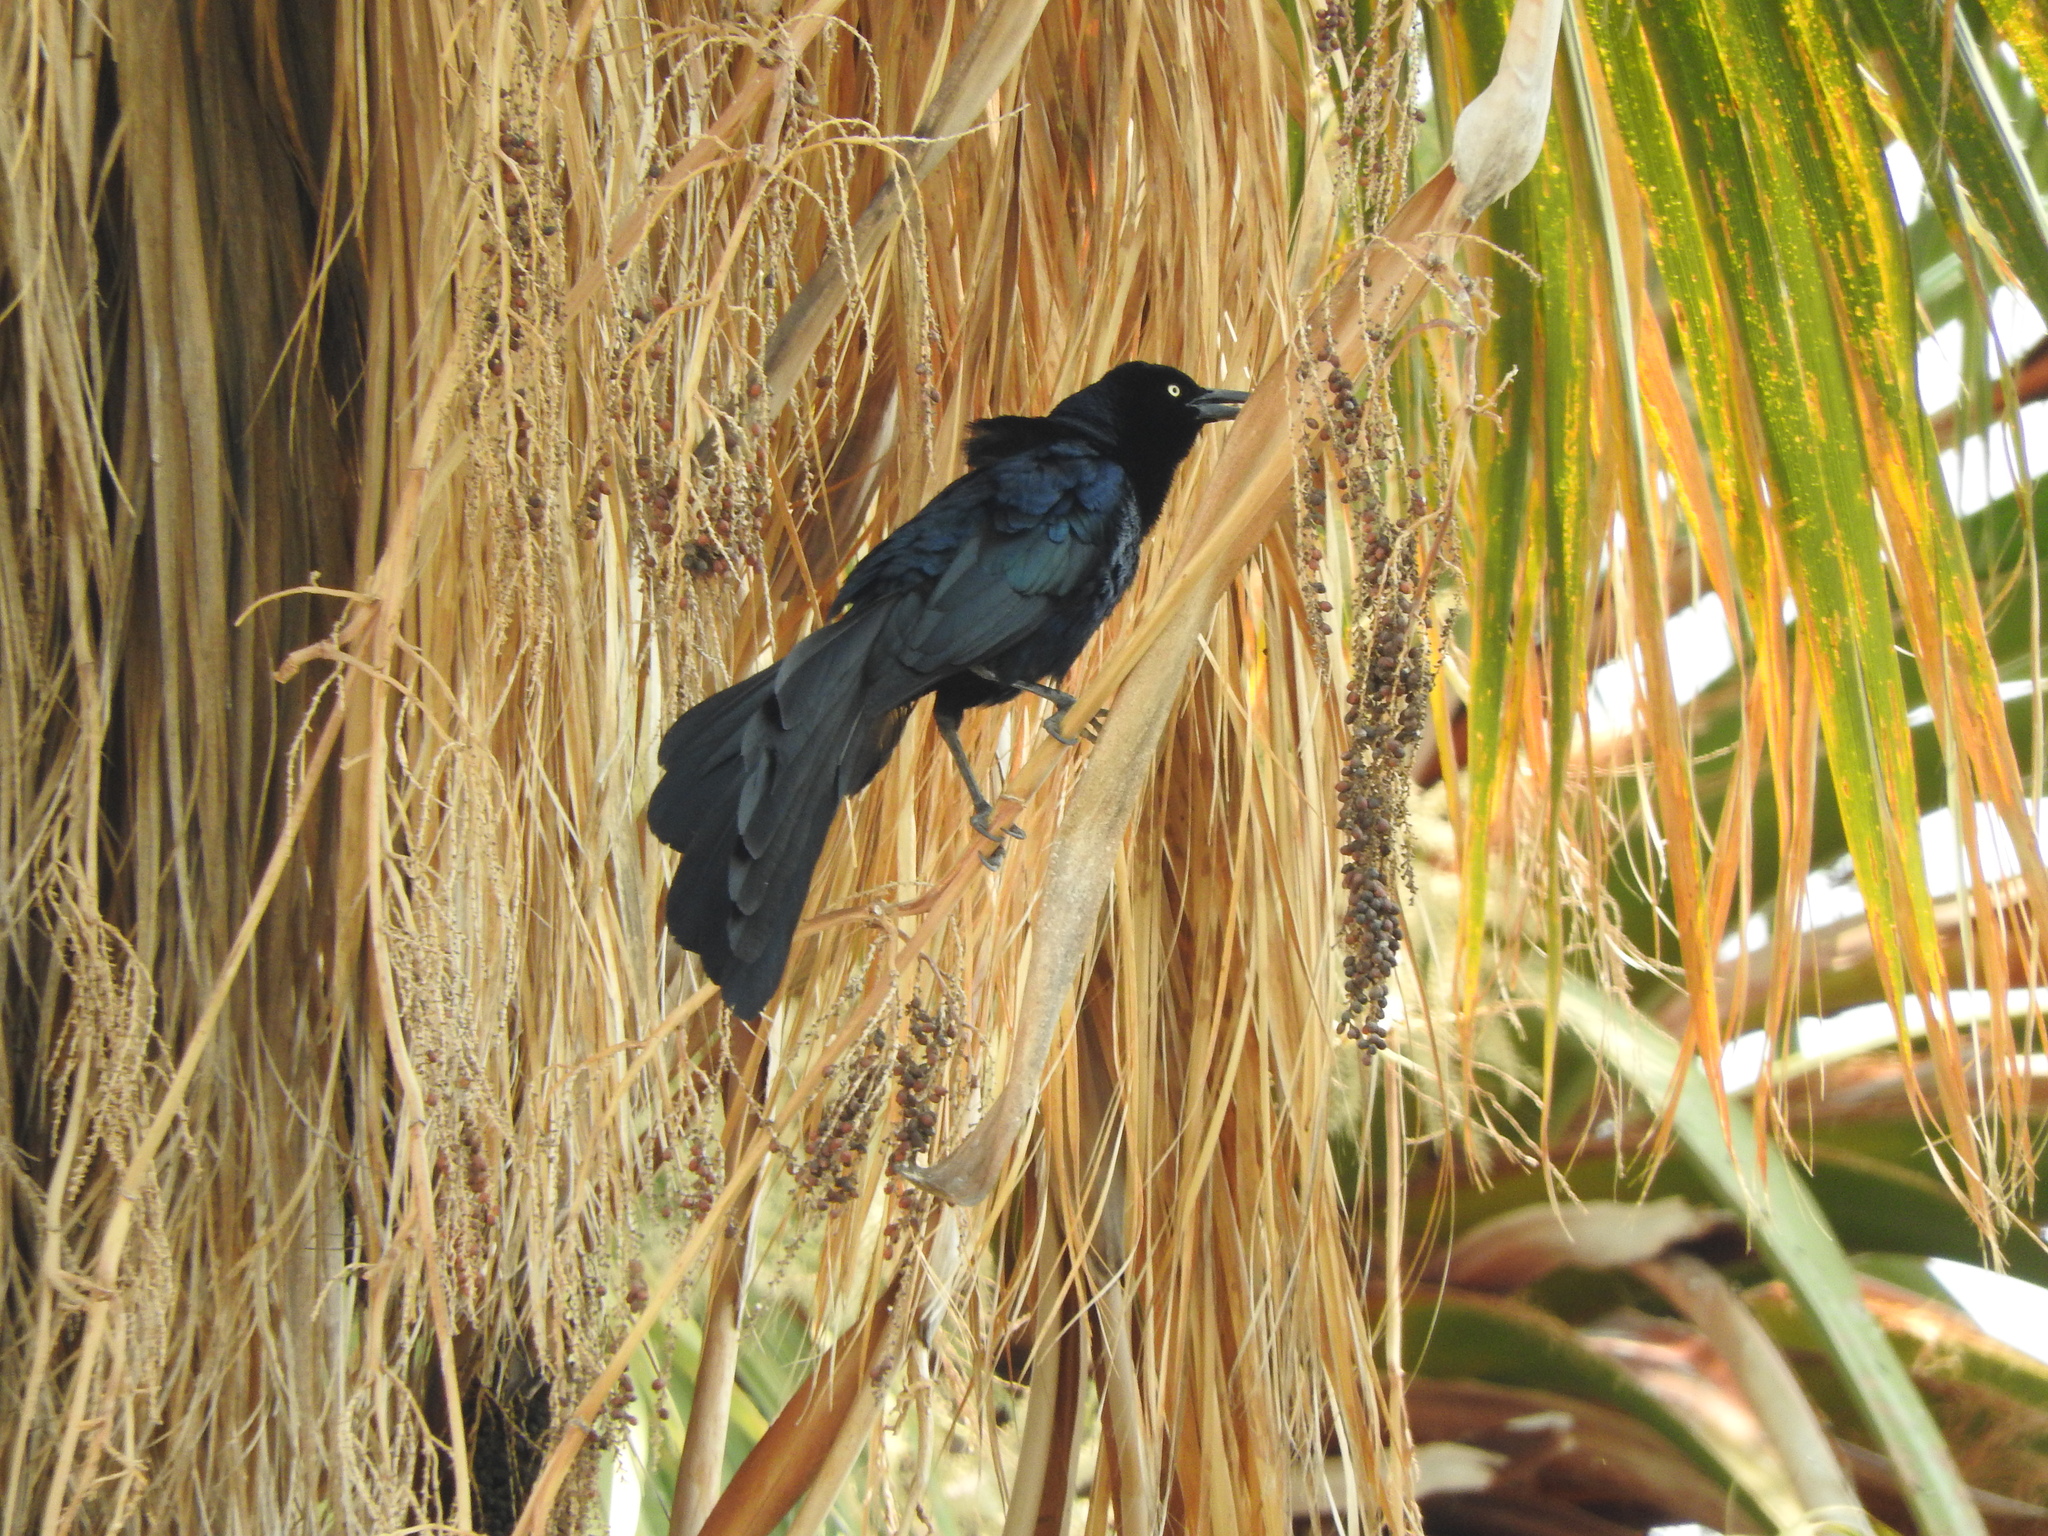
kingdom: Animalia
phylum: Chordata
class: Aves
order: Passeriformes
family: Icteridae
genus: Quiscalus
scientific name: Quiscalus mexicanus
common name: Great-tailed grackle
